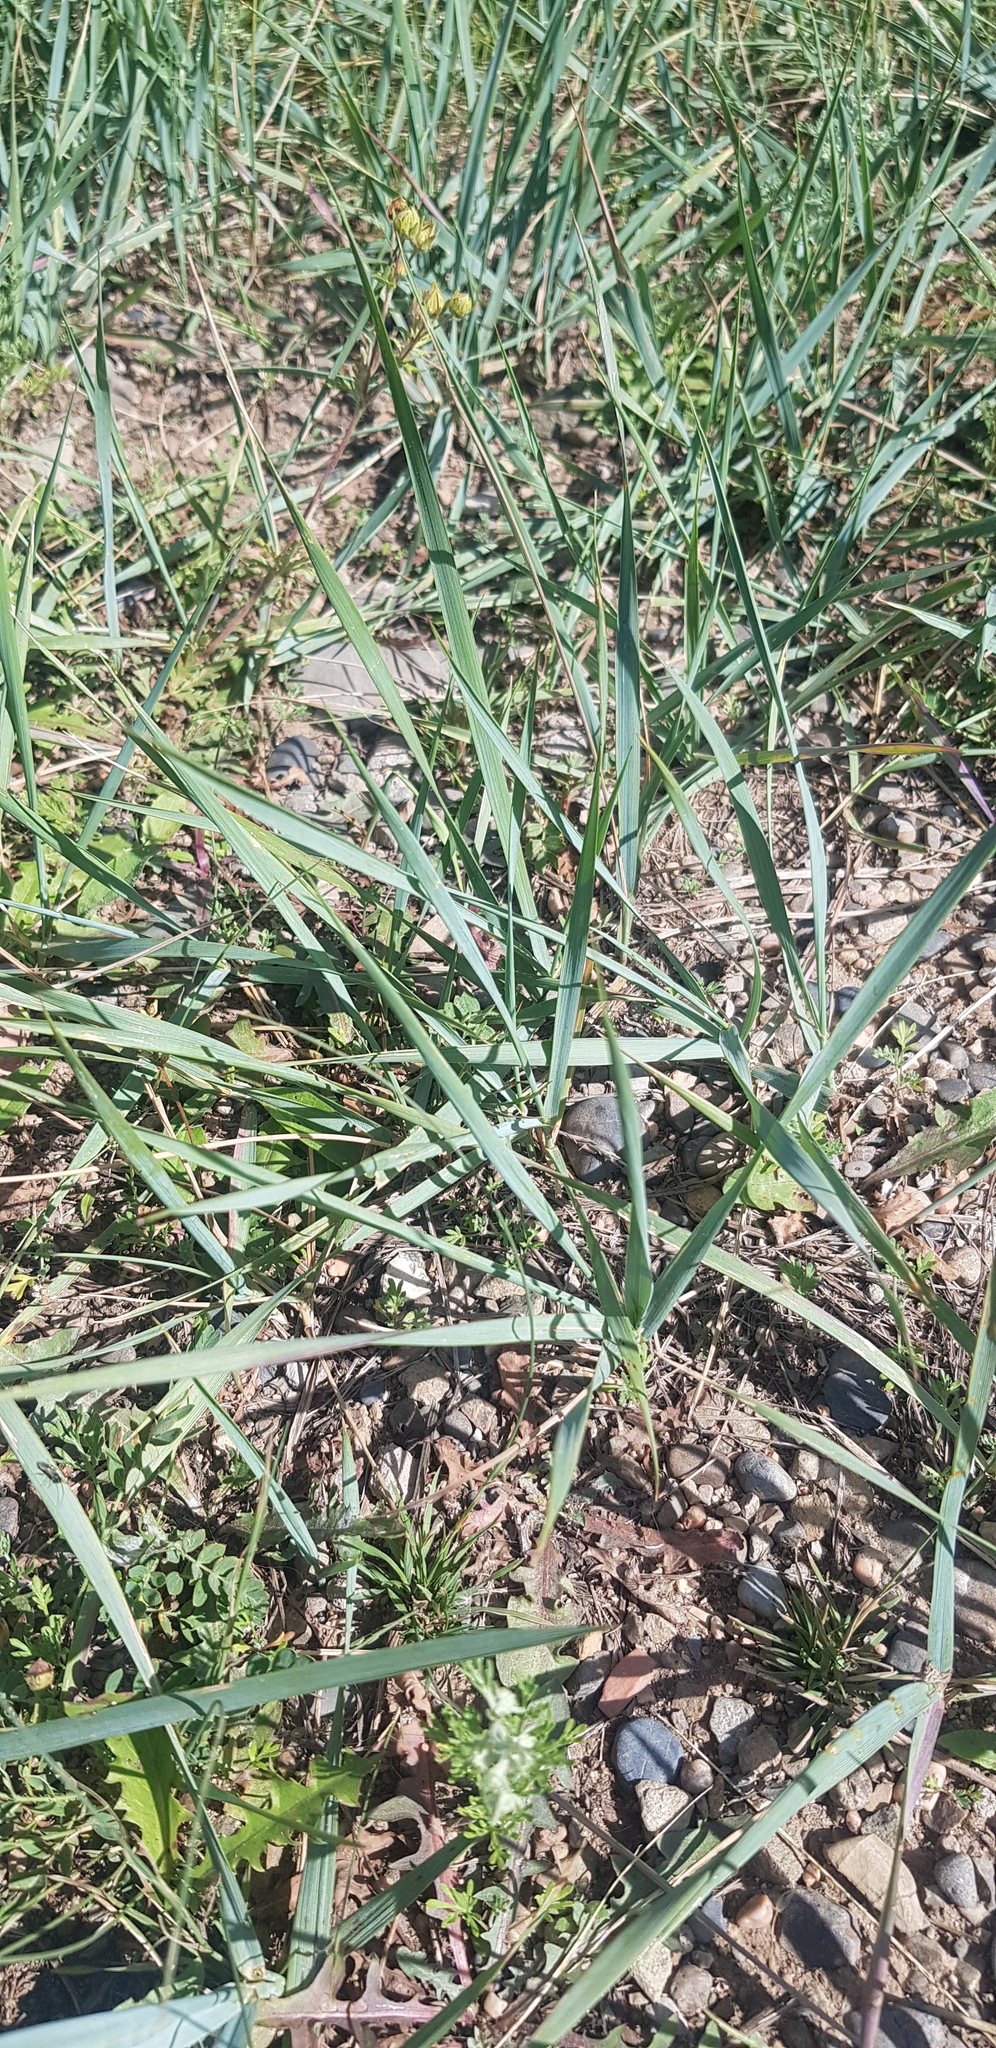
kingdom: Plantae
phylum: Tracheophyta
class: Liliopsida
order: Poales
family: Poaceae
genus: Leymus
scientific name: Leymus chinensis
